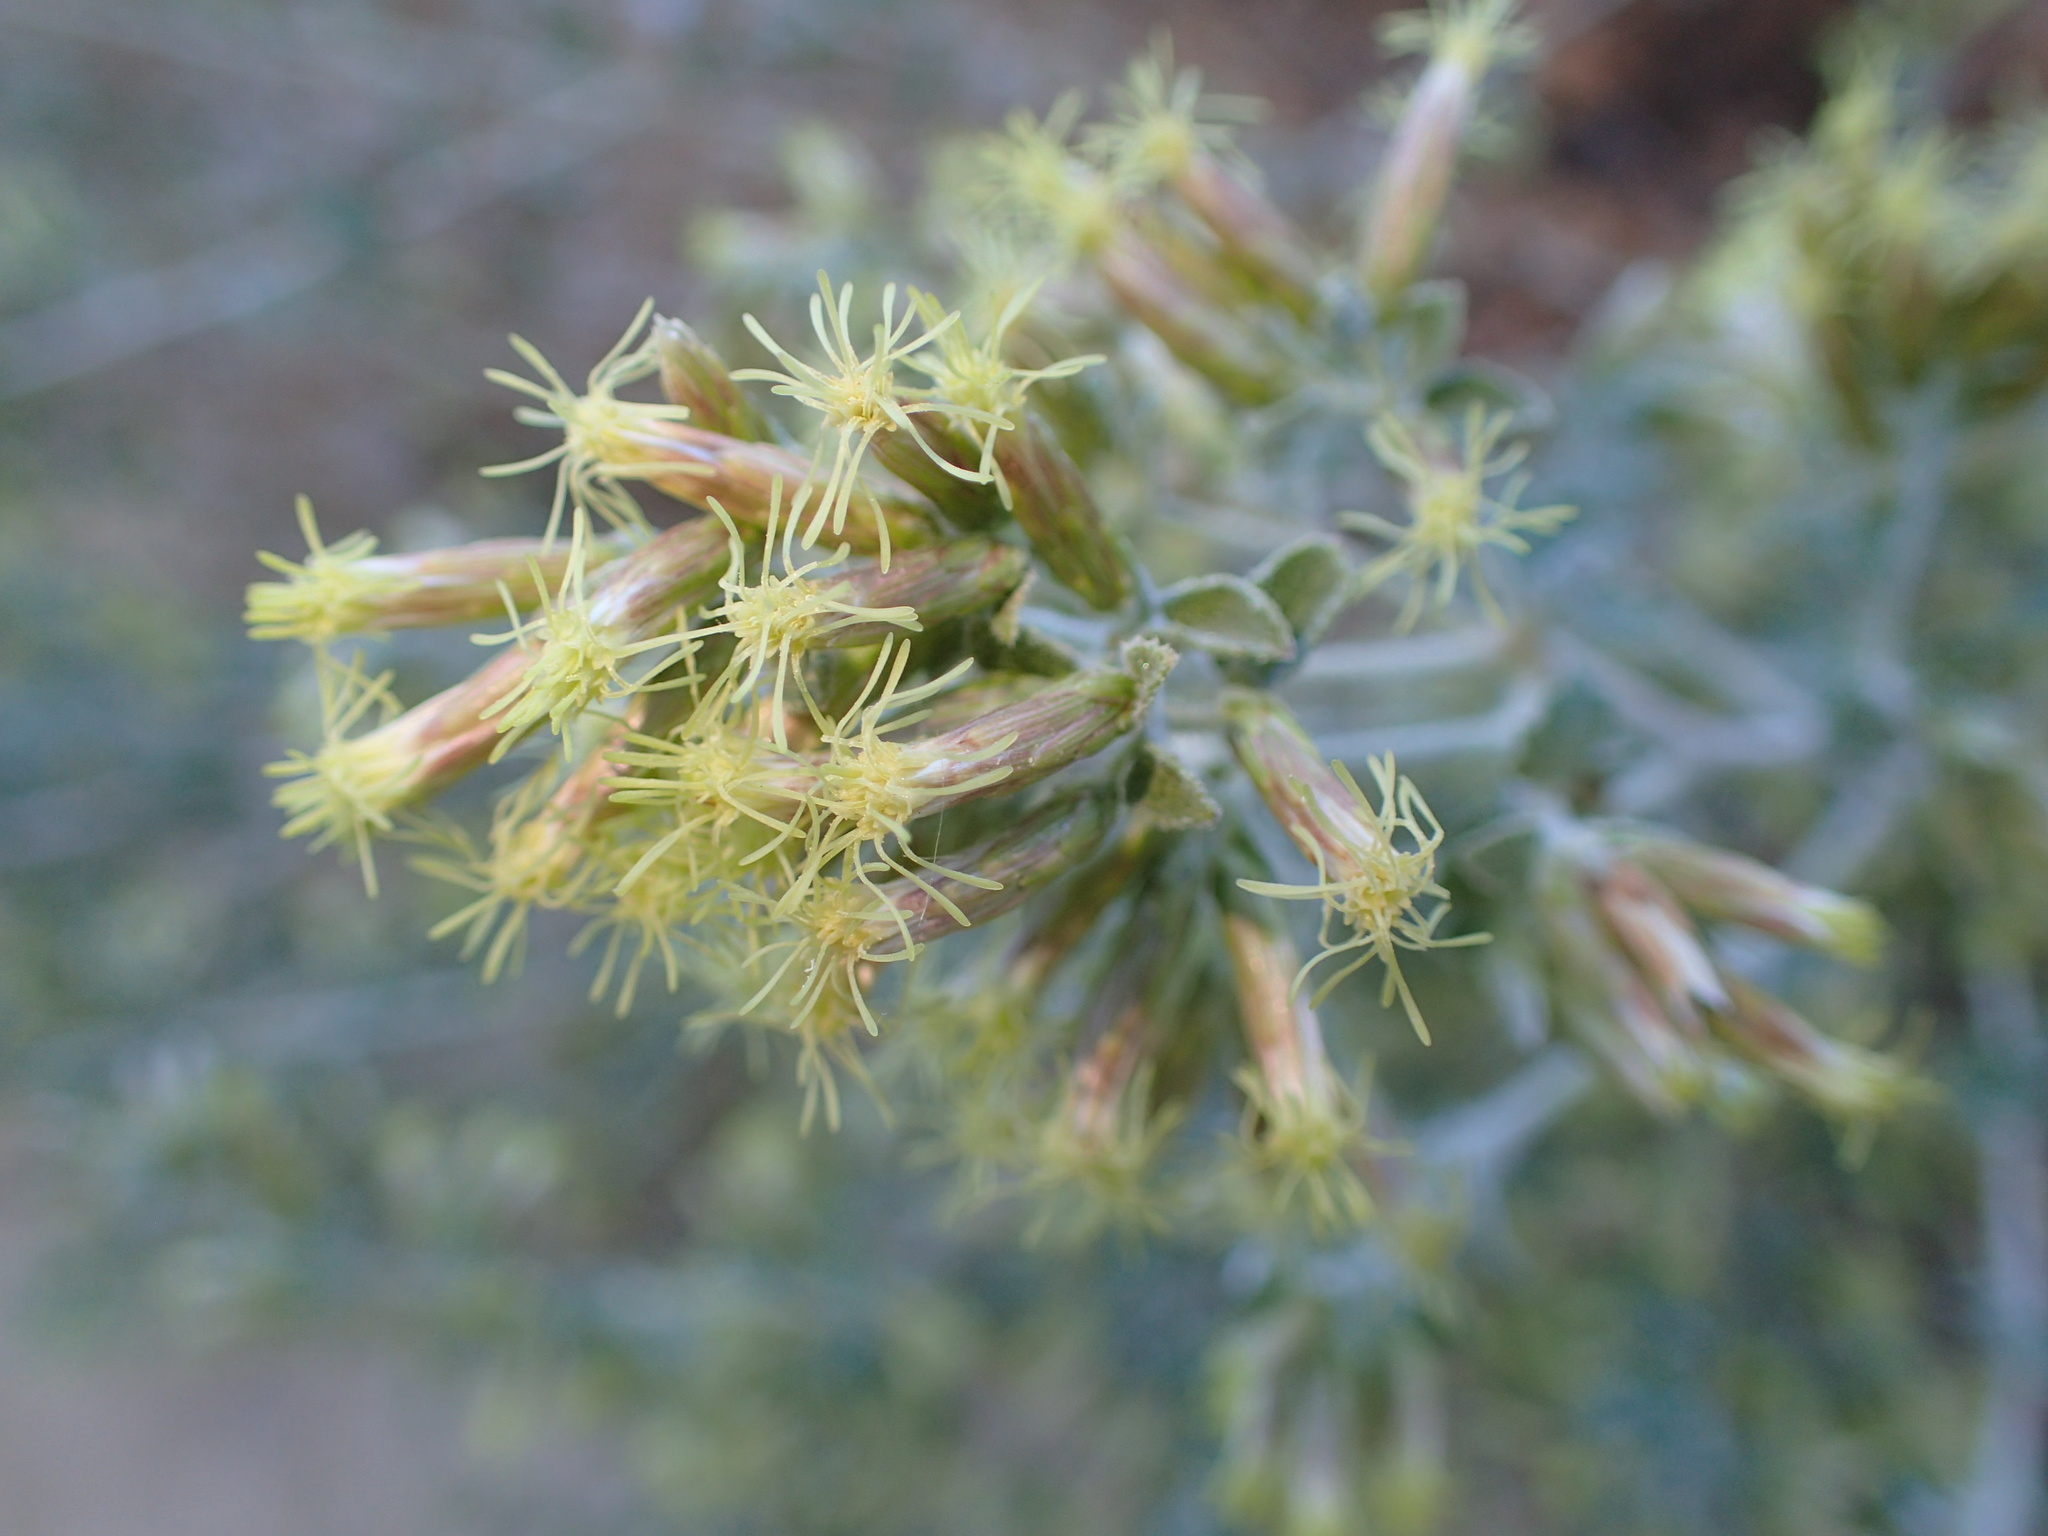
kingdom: Plantae
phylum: Tracheophyta
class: Magnoliopsida
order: Asterales
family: Asteraceae
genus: Brickellia
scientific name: Brickellia californica
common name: California brickellbush
